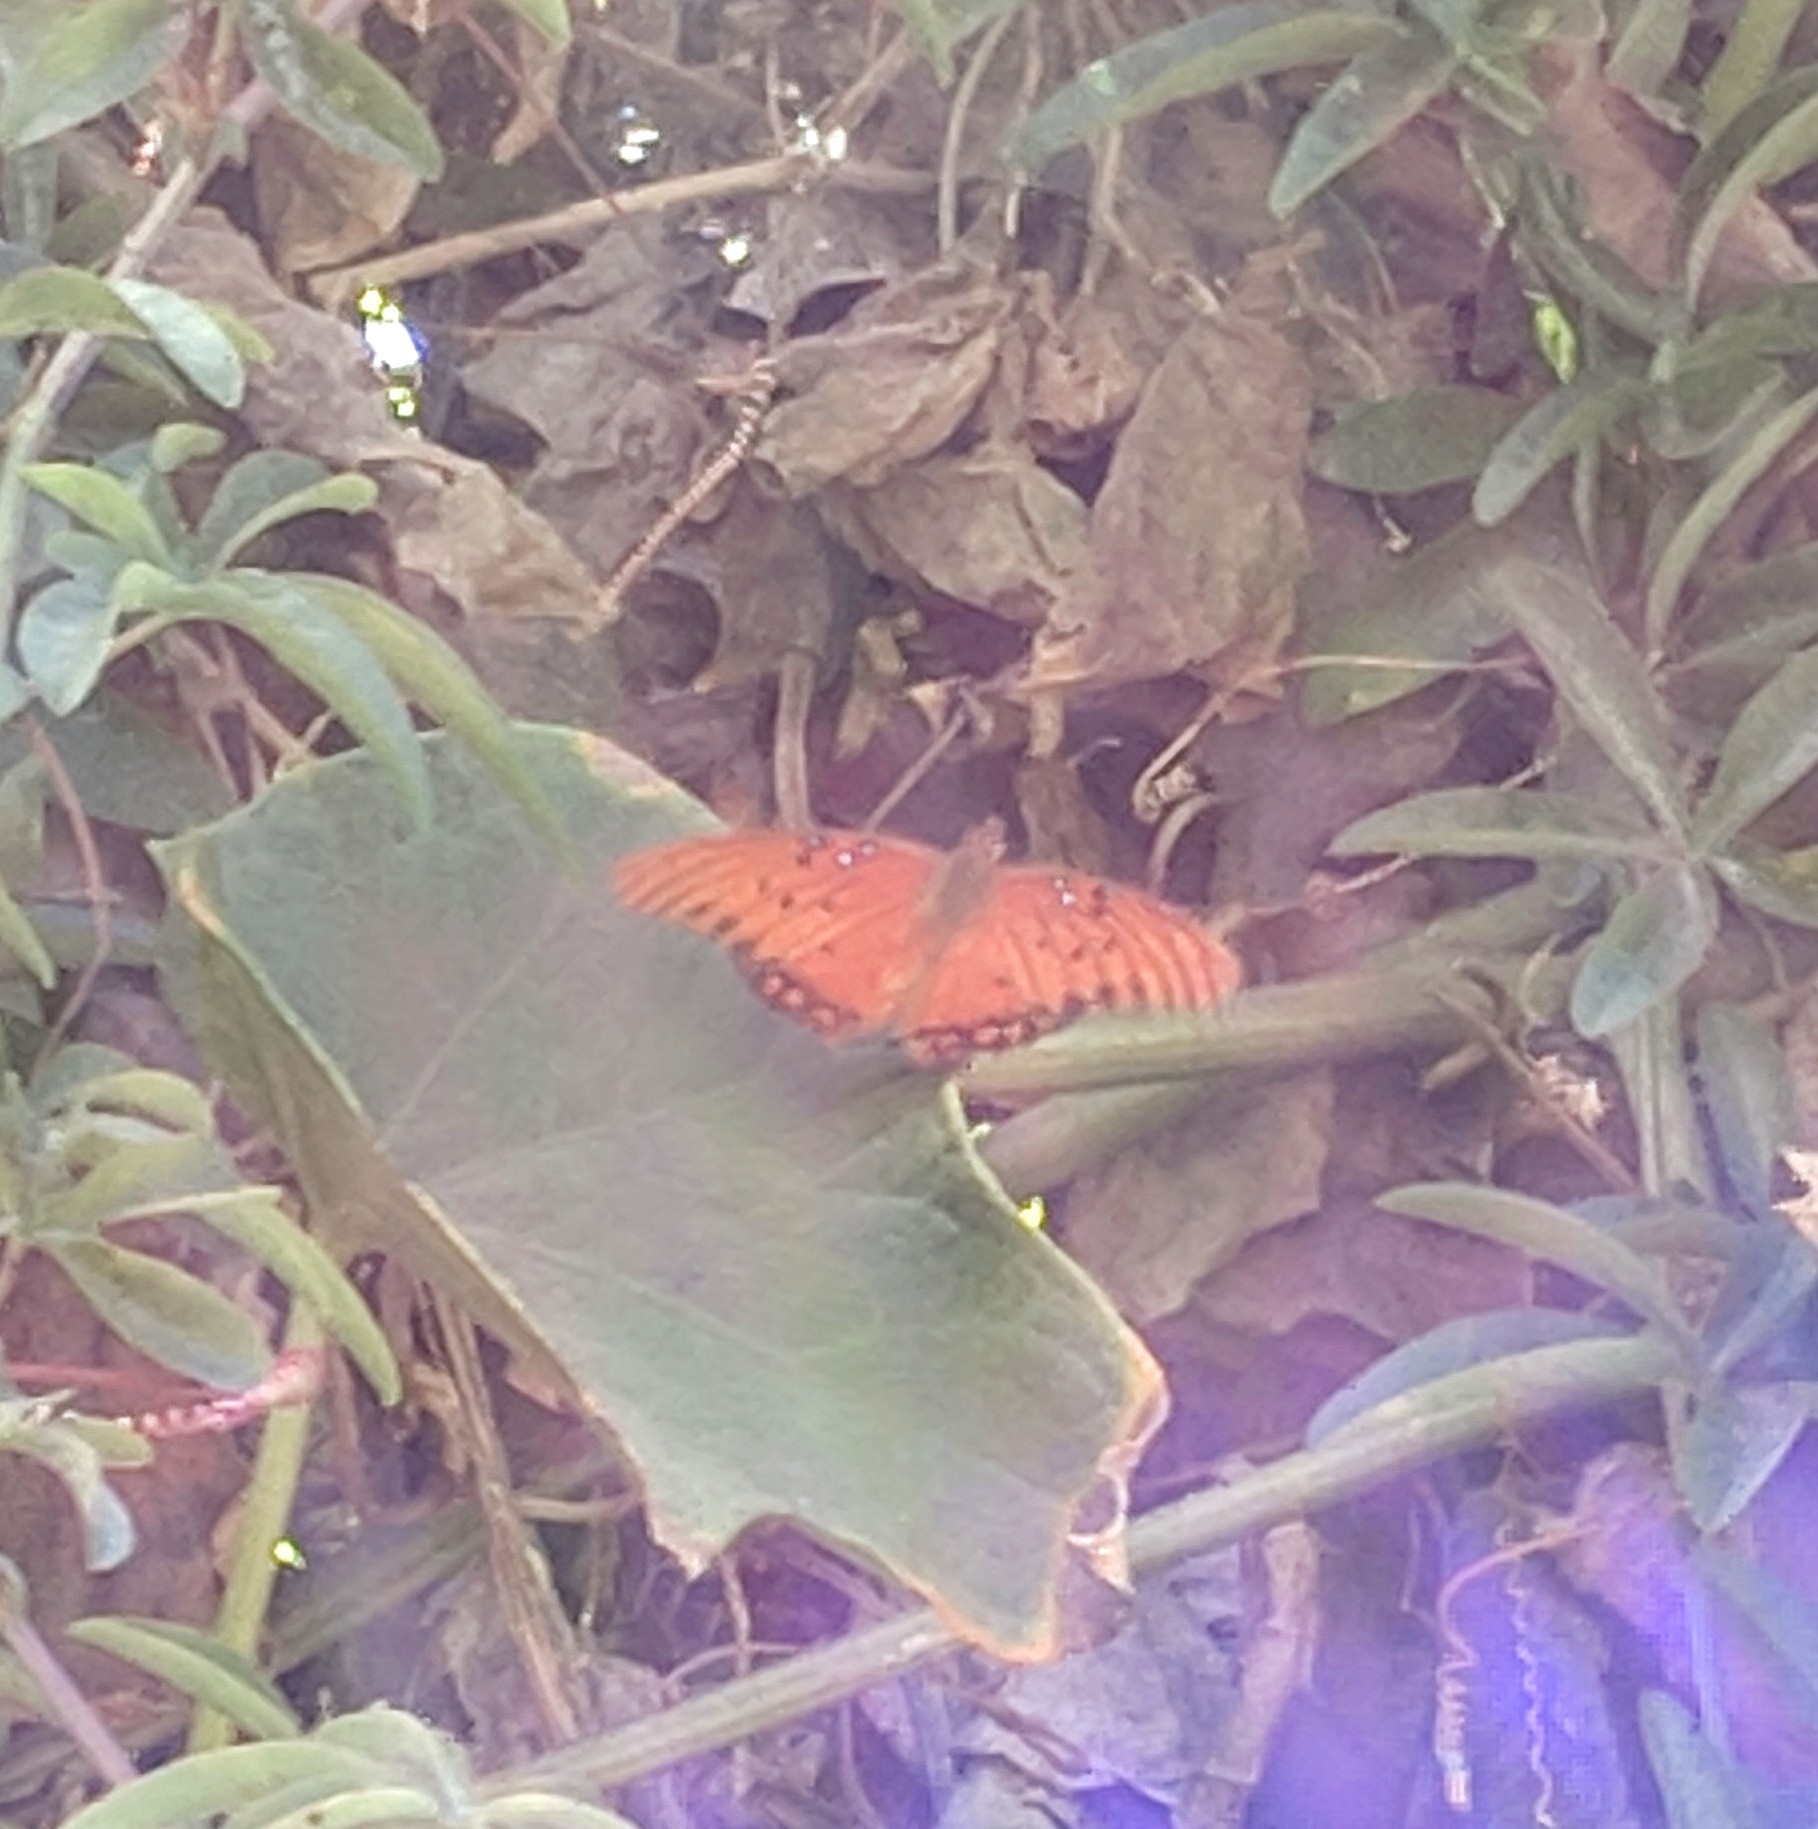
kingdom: Animalia
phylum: Arthropoda
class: Insecta
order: Lepidoptera
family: Nymphalidae
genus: Dione
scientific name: Dione vanillae
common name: Gulf fritillary
